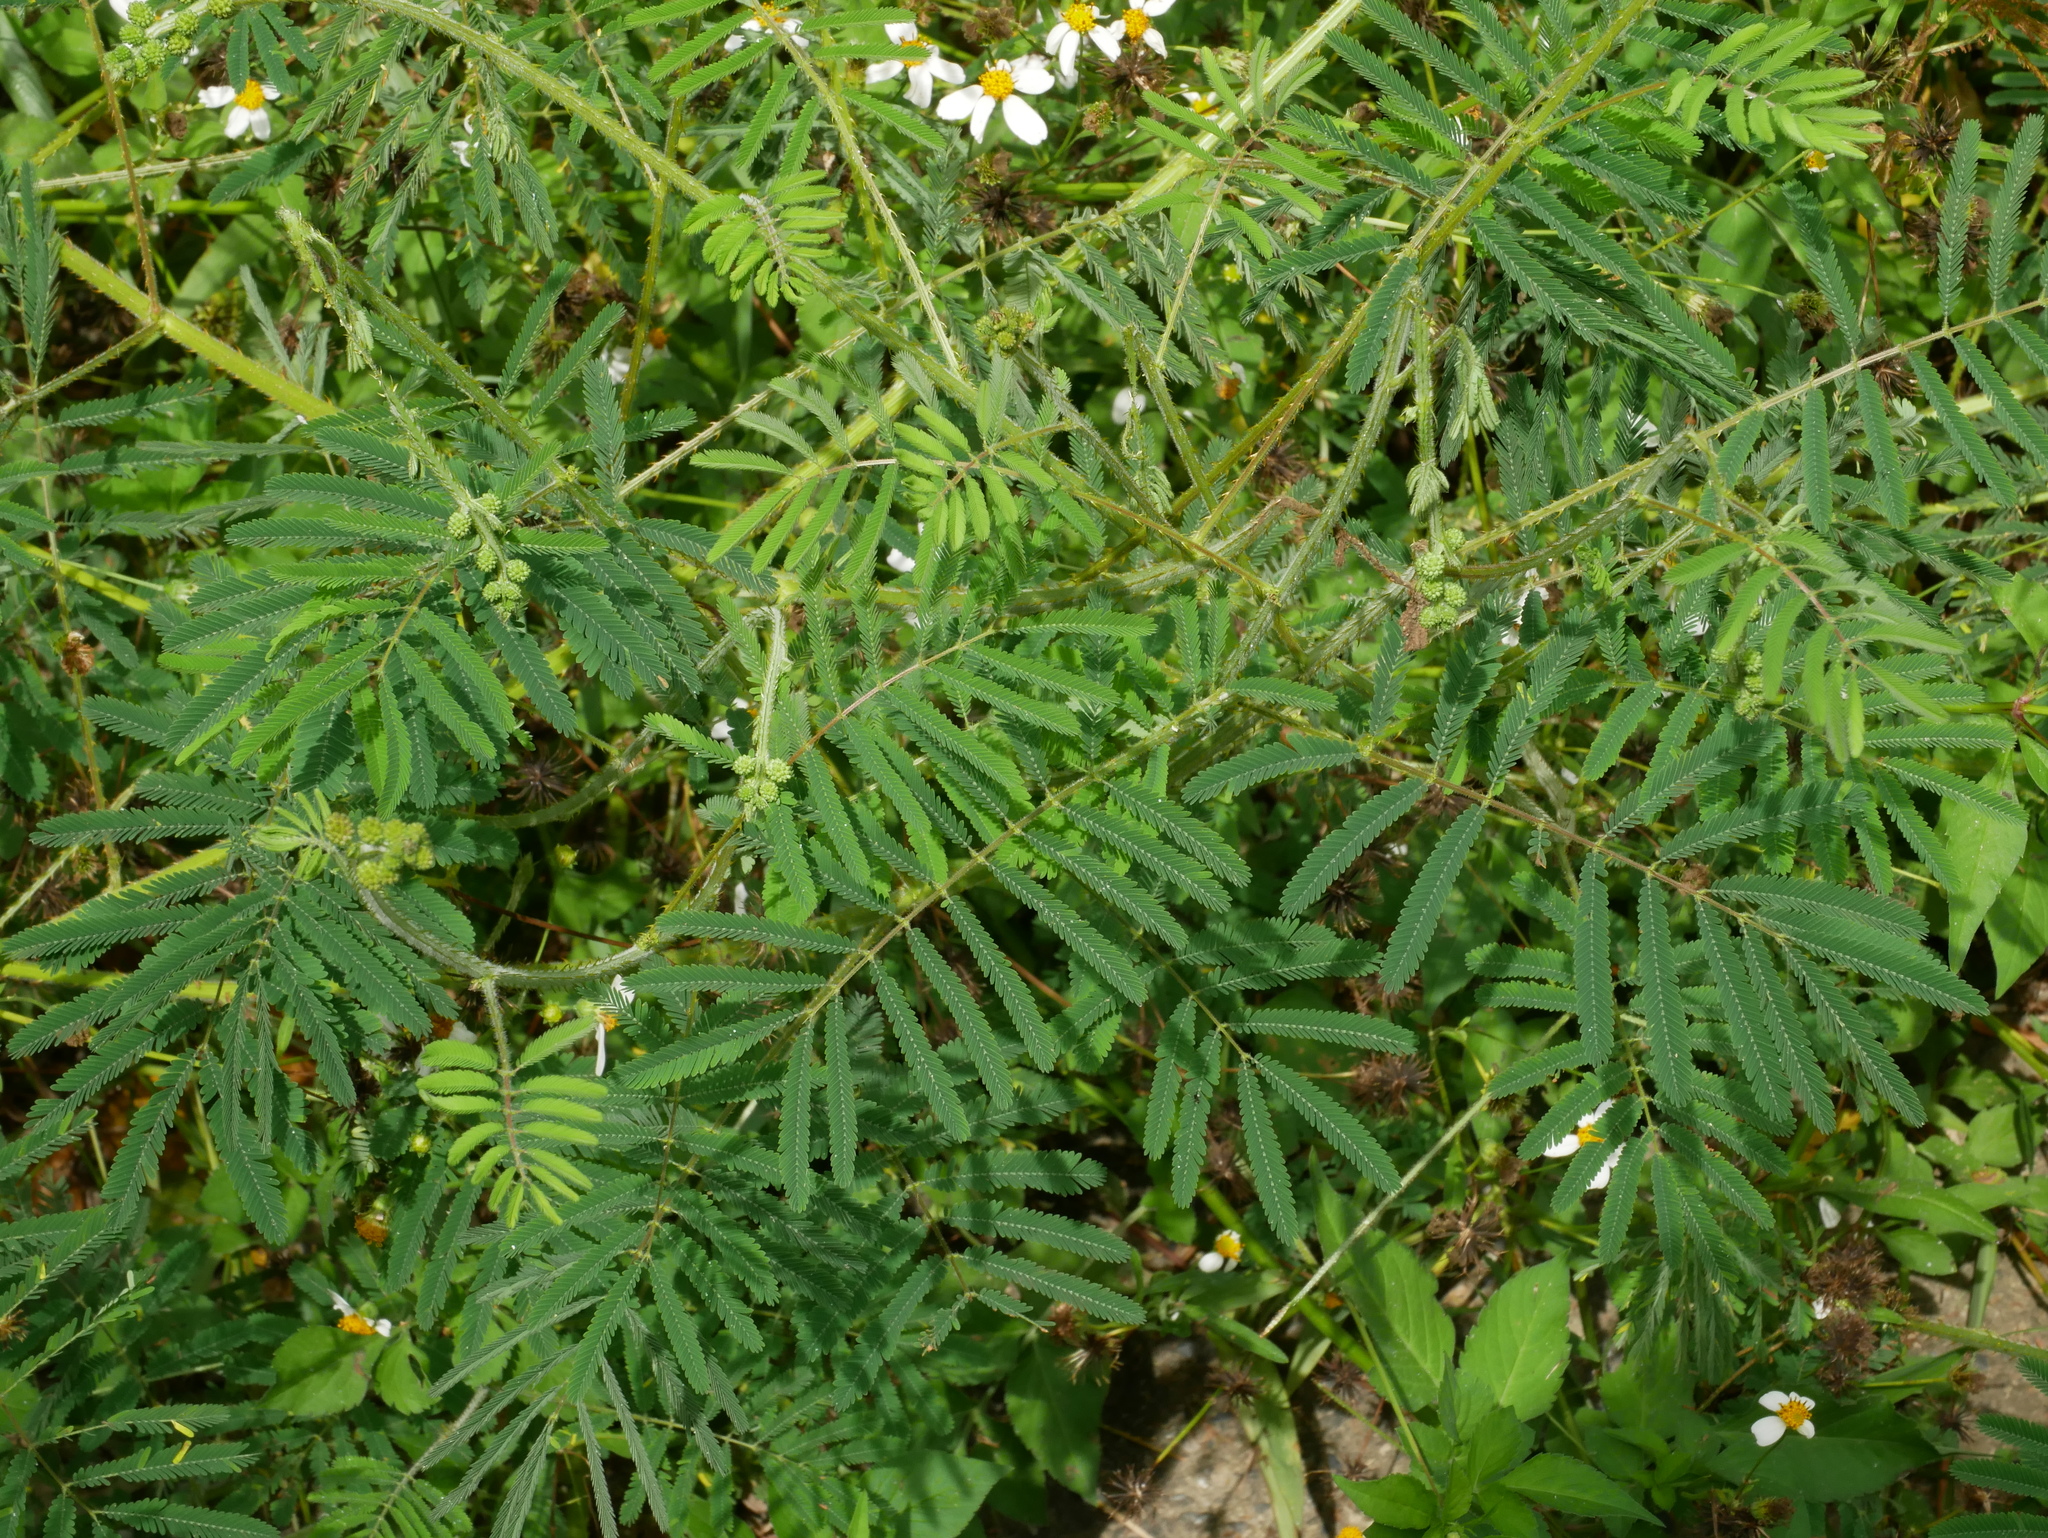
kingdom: Plantae
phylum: Tracheophyta
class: Magnoliopsida
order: Fabales
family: Fabaceae
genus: Mimosa
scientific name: Mimosa diplotricha
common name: Giant sensitive-plant
